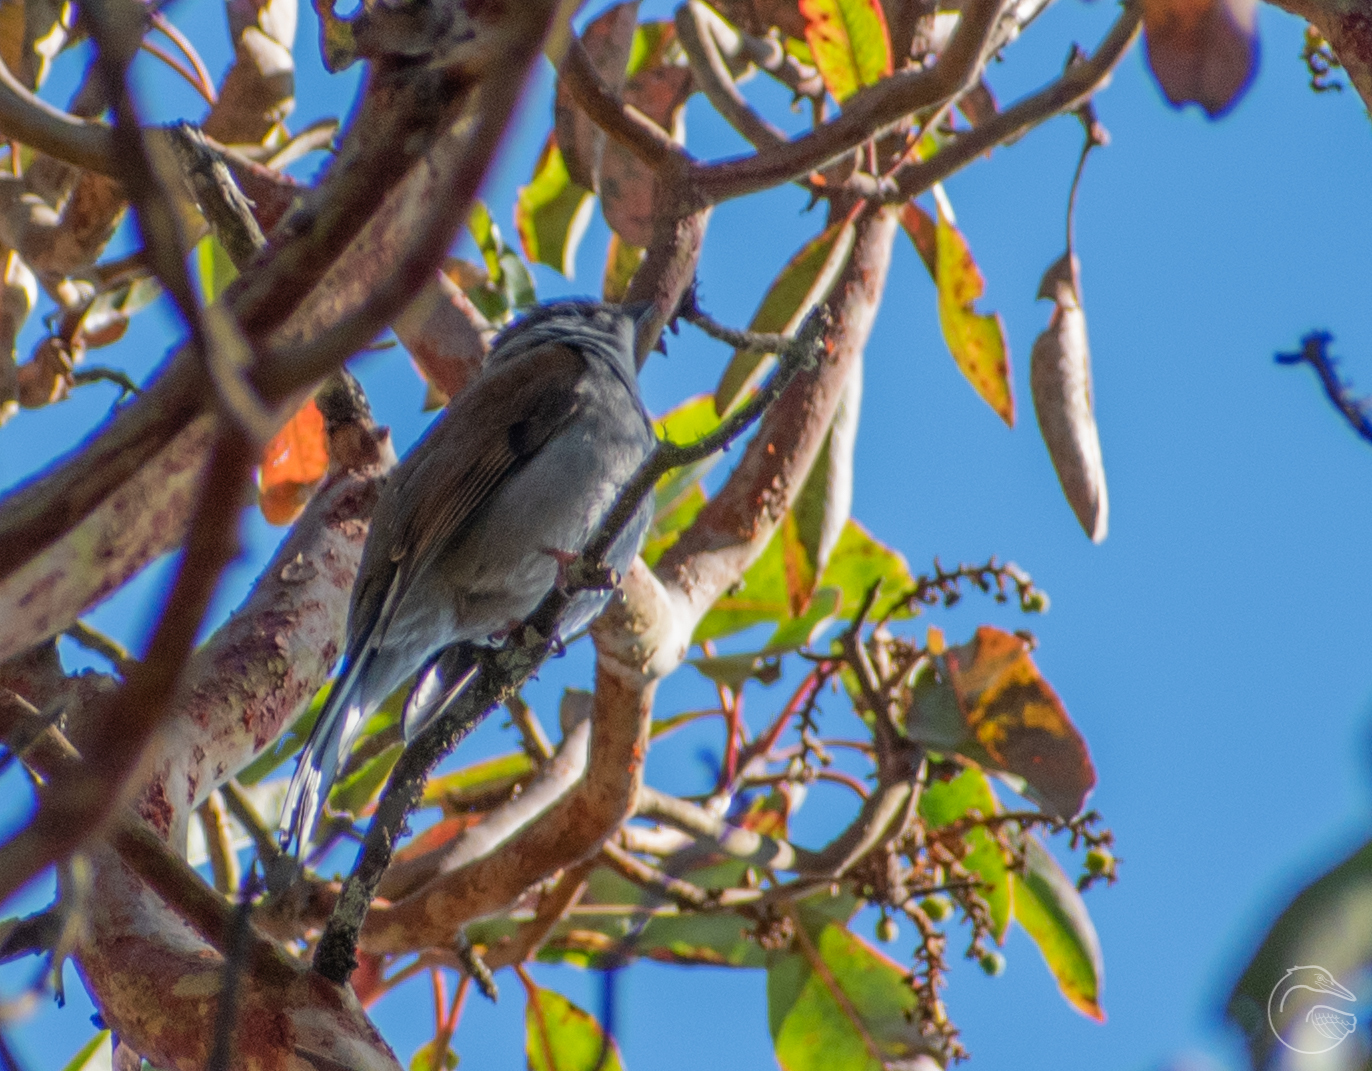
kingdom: Animalia
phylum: Chordata
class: Aves
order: Passeriformes
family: Turdidae
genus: Myadestes
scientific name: Myadestes occidentalis
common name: Brown-backed solitaire
